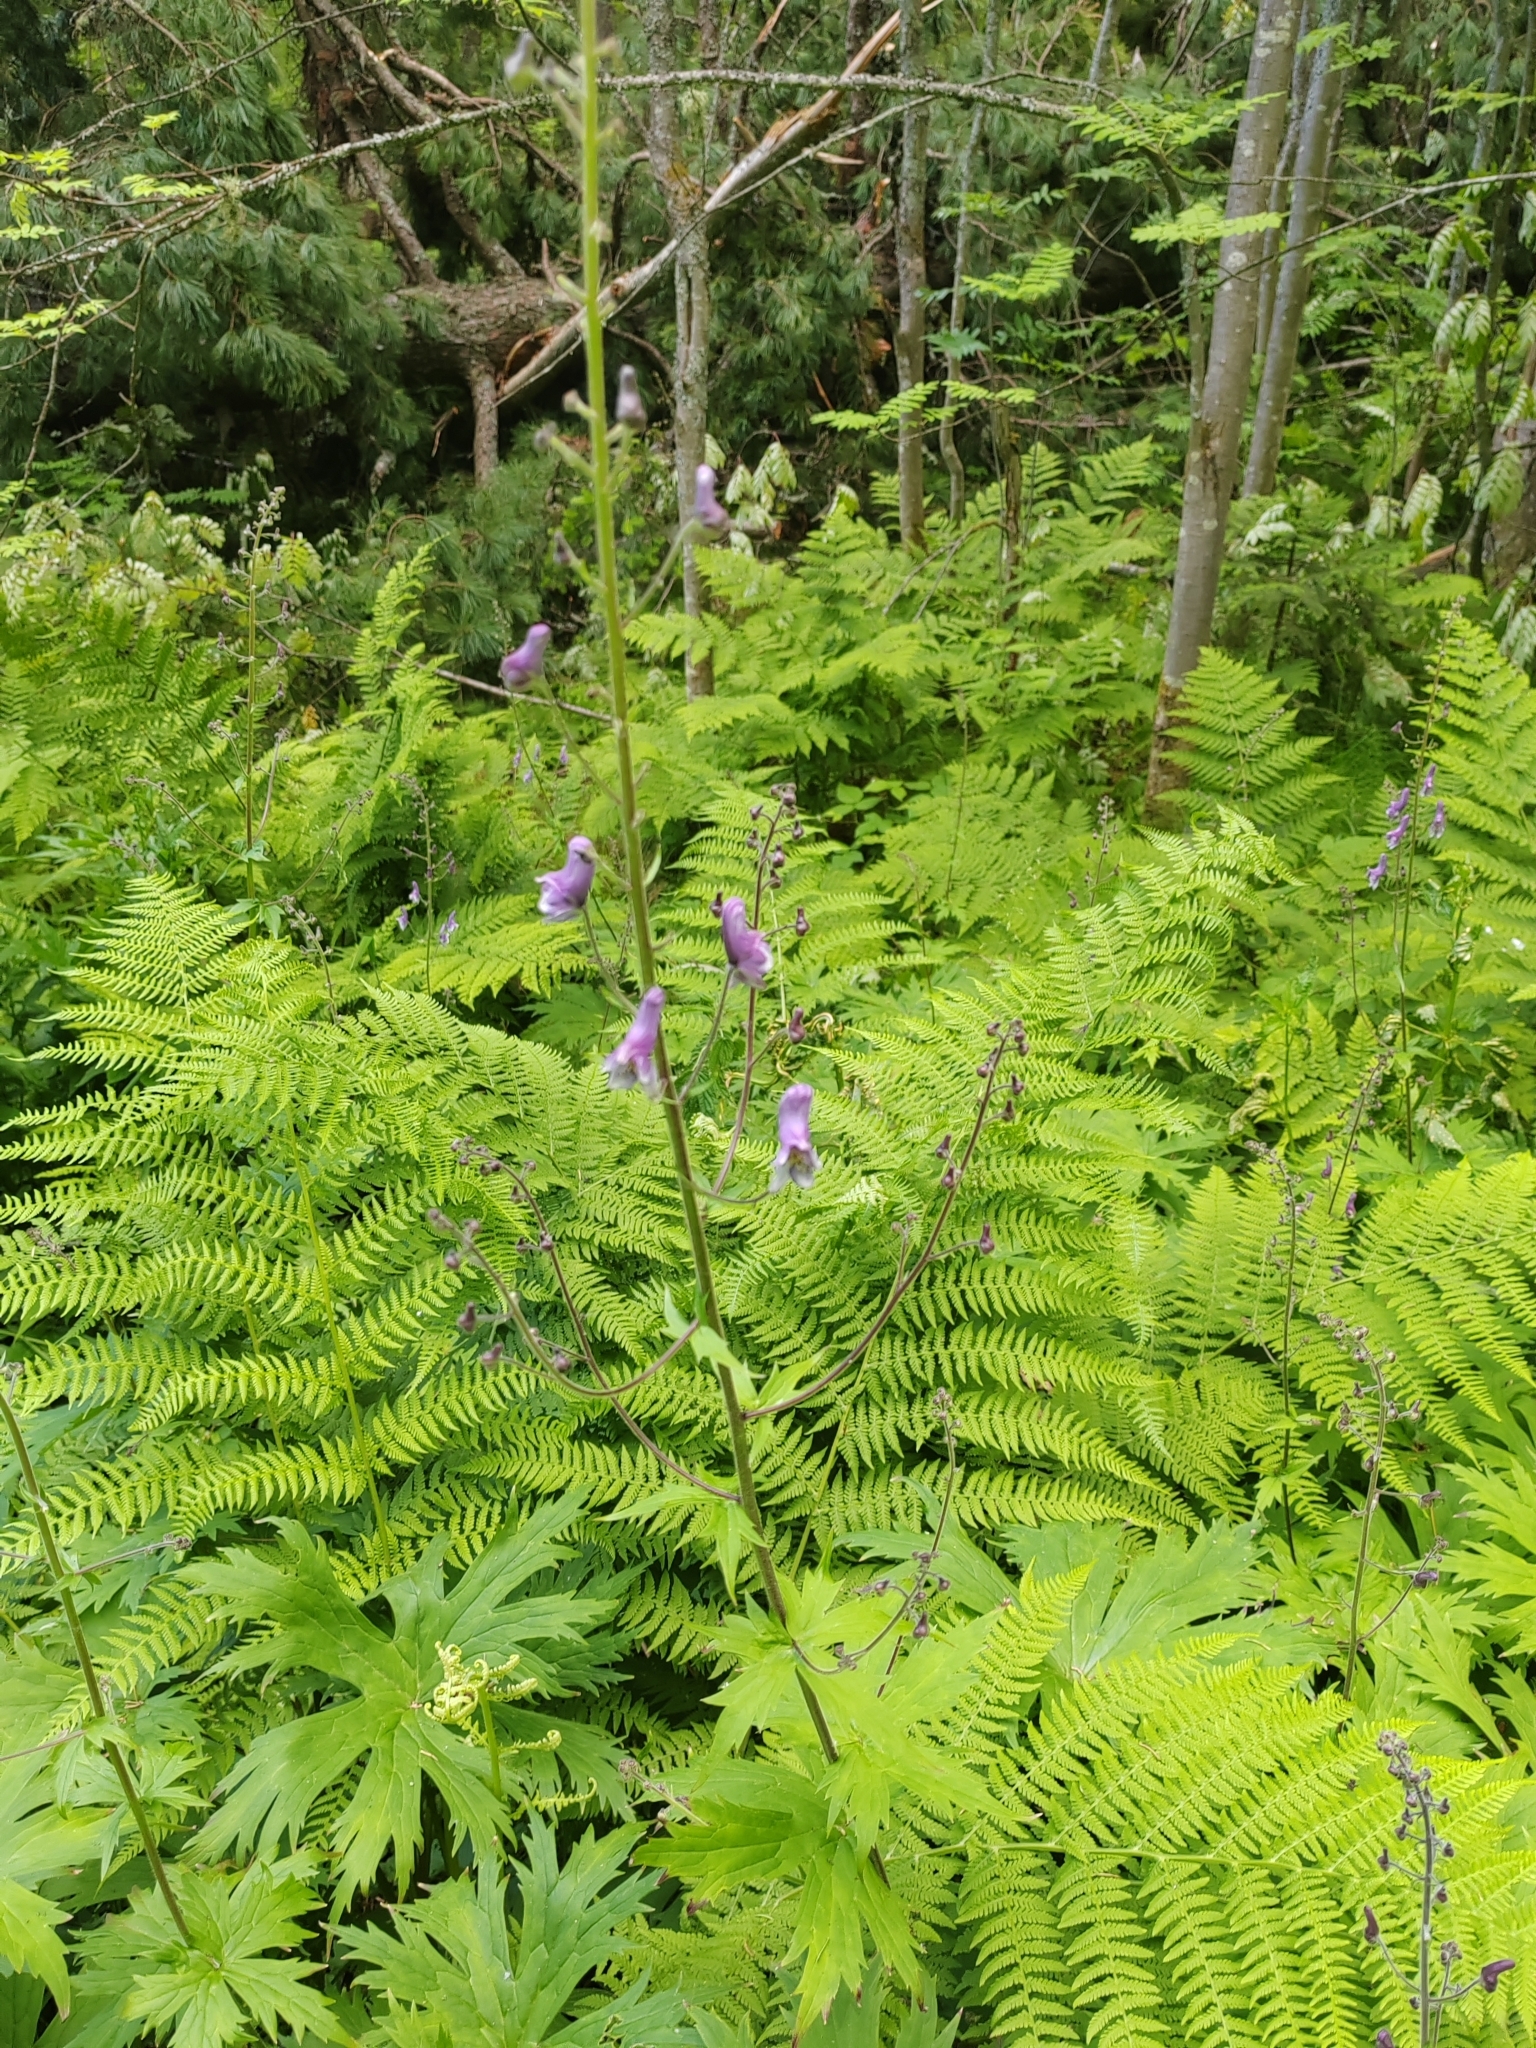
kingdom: Plantae
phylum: Tracheophyta
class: Magnoliopsida
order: Ranunculales
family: Ranunculaceae
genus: Aconitum
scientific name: Aconitum septentrionale
